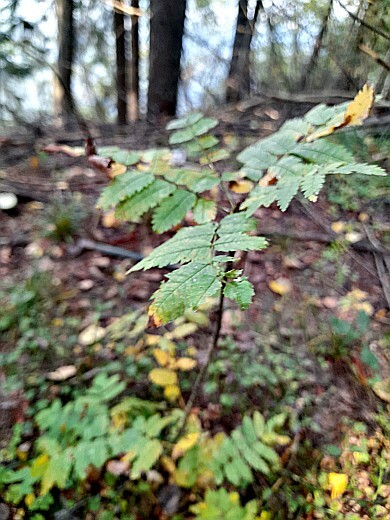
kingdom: Plantae
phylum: Tracheophyta
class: Magnoliopsida
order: Rosales
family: Rosaceae
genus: Sorbus
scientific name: Sorbus aucuparia
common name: Rowan
